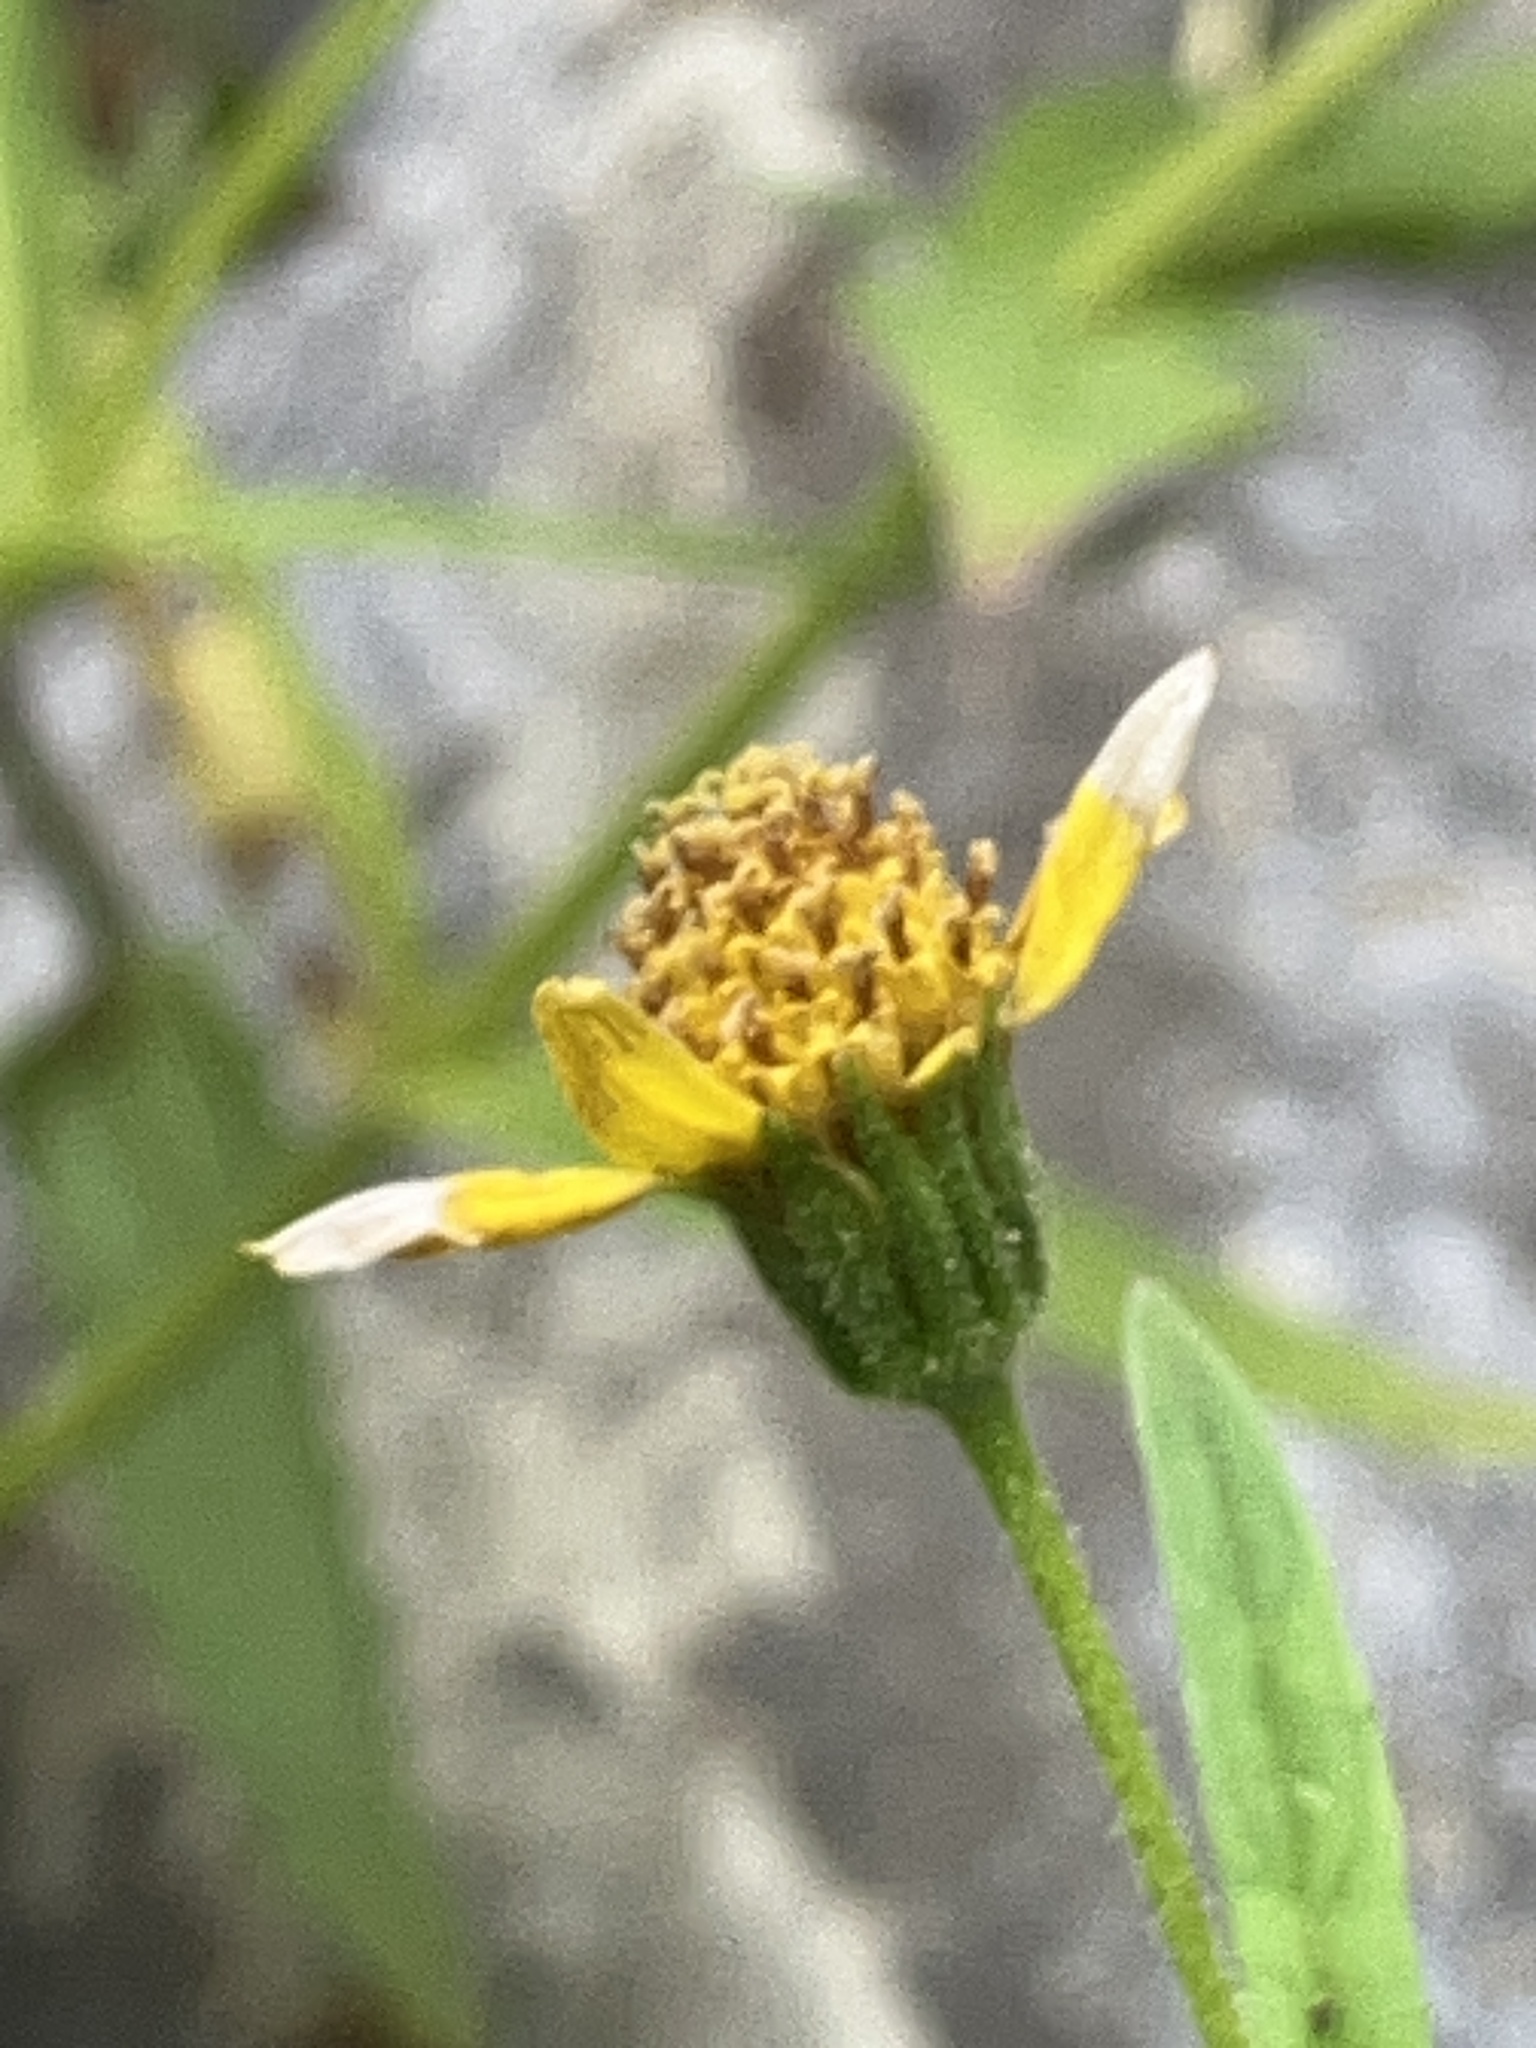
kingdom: Plantae
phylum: Tracheophyta
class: Magnoliopsida
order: Asterales
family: Asteraceae
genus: Arnica
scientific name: Arnica lanceolata
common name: Lance-leaved arnica
